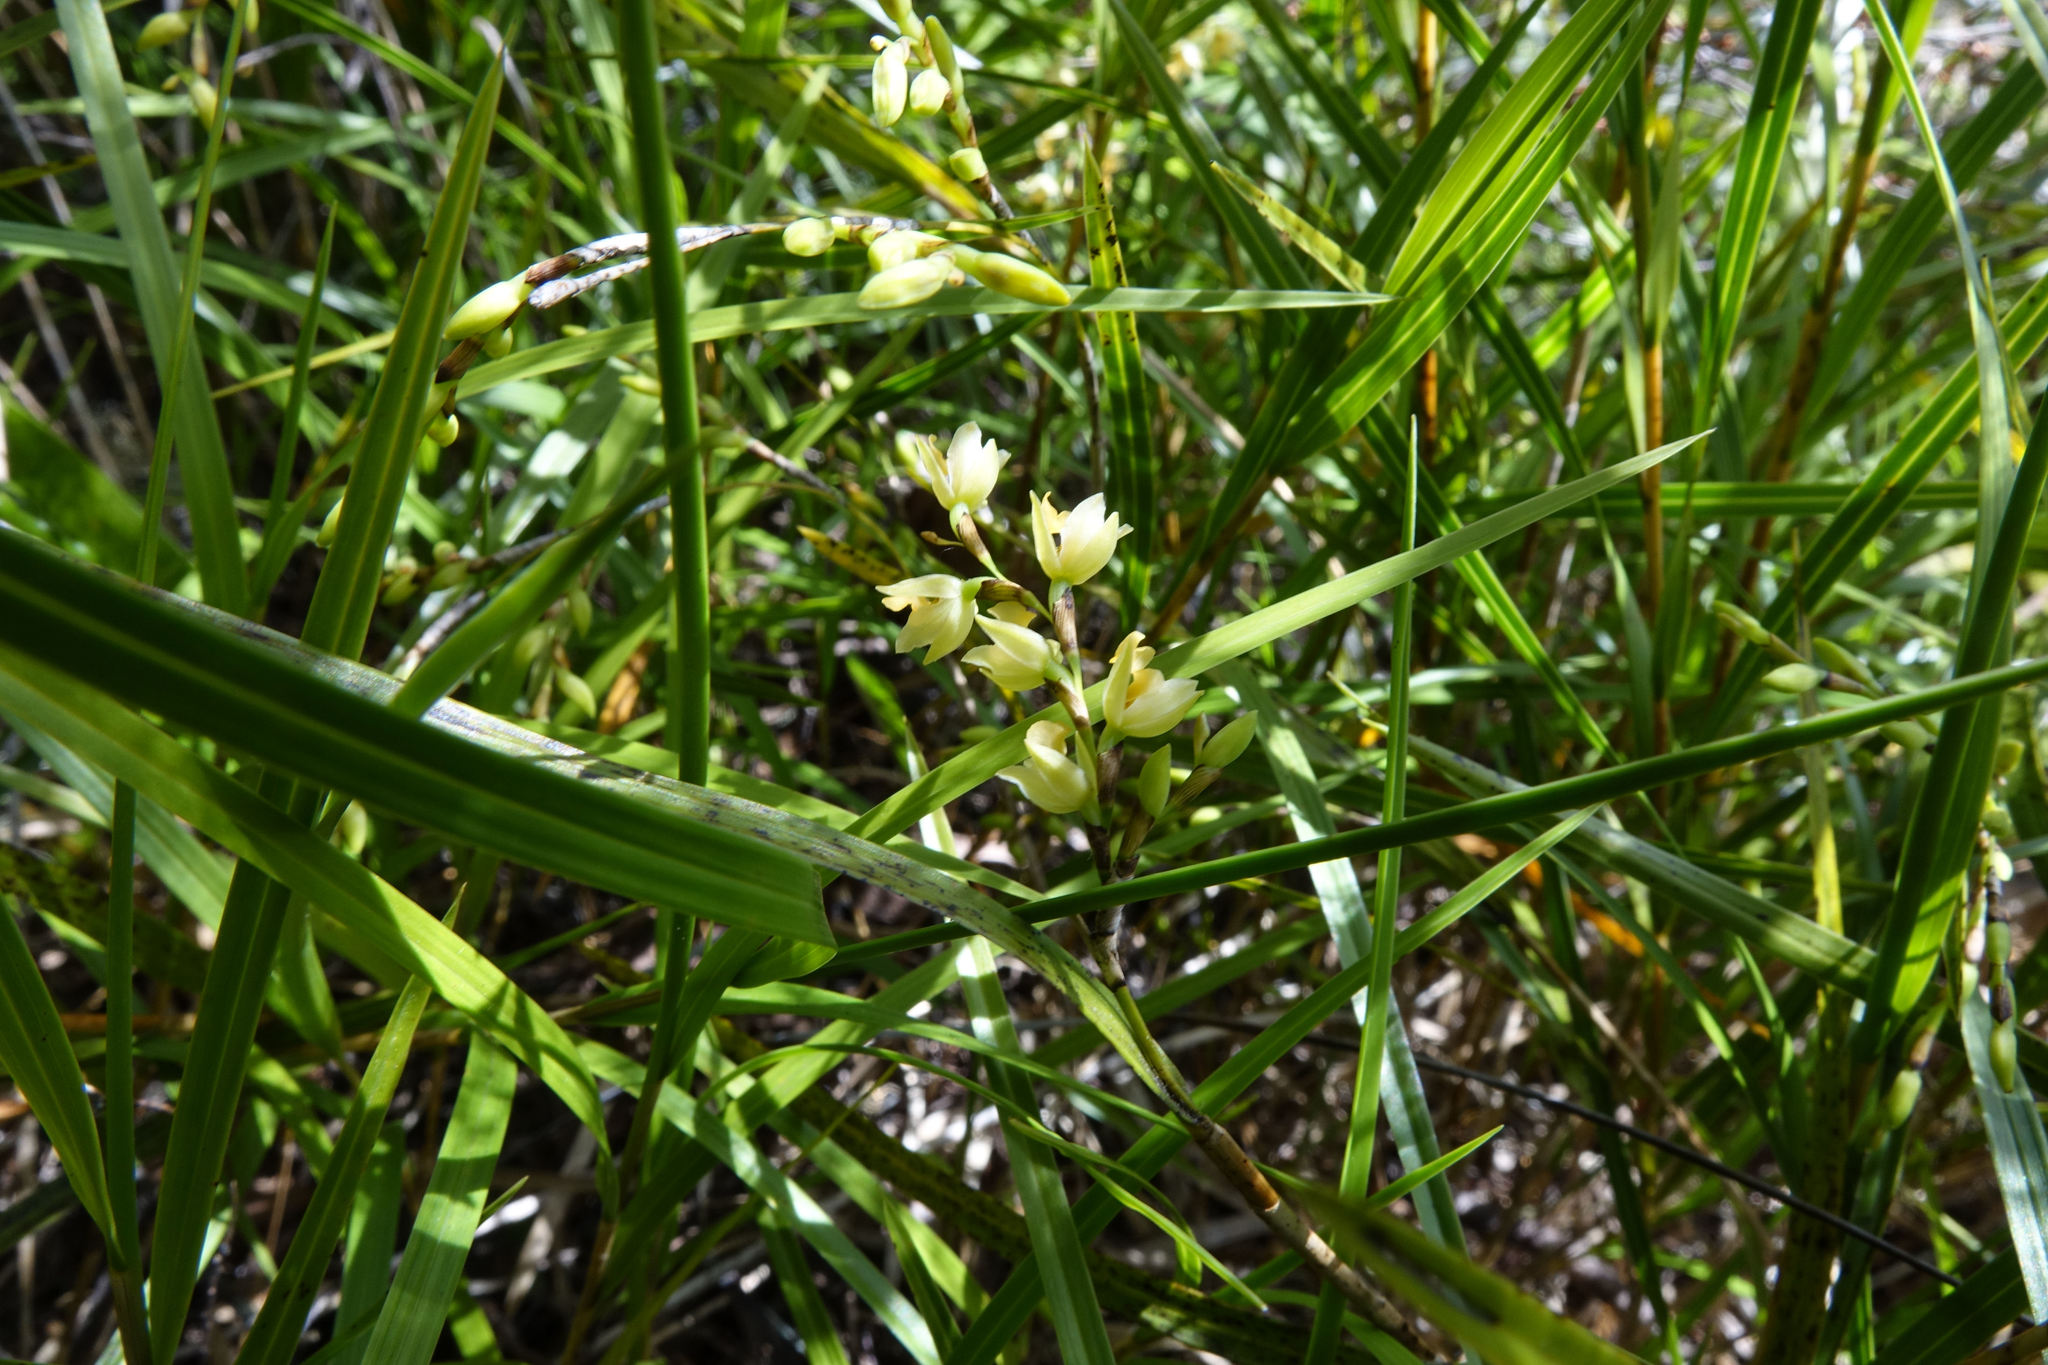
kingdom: Plantae
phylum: Tracheophyta
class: Liliopsida
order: Asparagales
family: Orchidaceae
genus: Earina
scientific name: Earina mucronata
